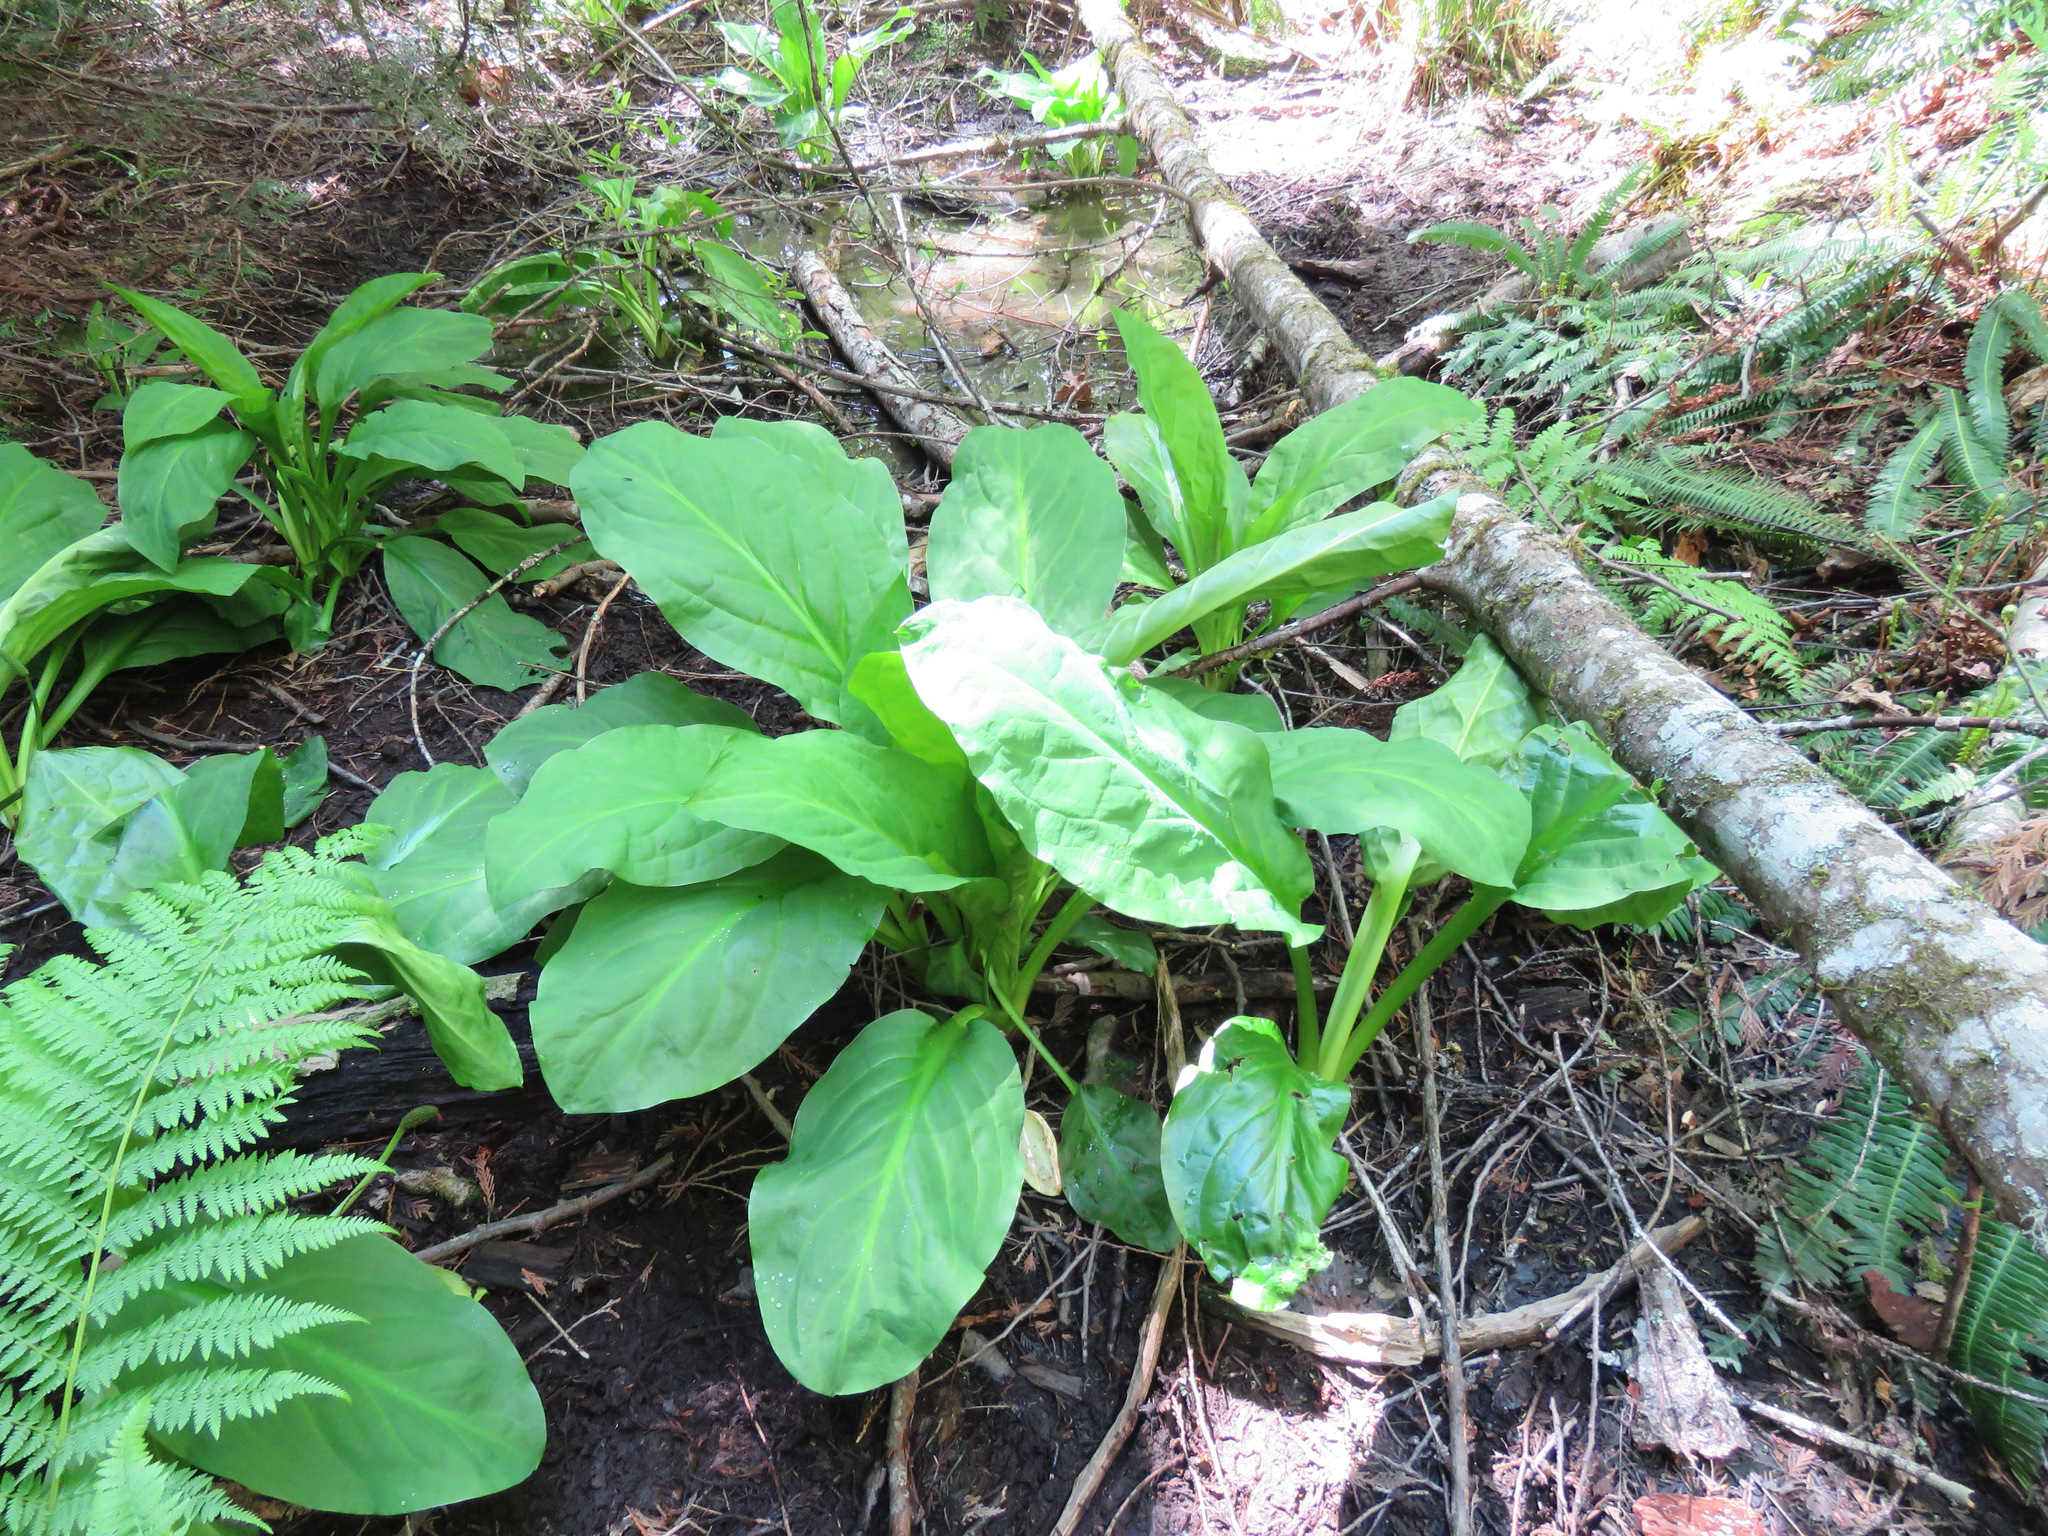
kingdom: Plantae
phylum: Tracheophyta
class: Liliopsida
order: Alismatales
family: Araceae
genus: Lysichiton
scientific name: Lysichiton americanus
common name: American skunk cabbage
